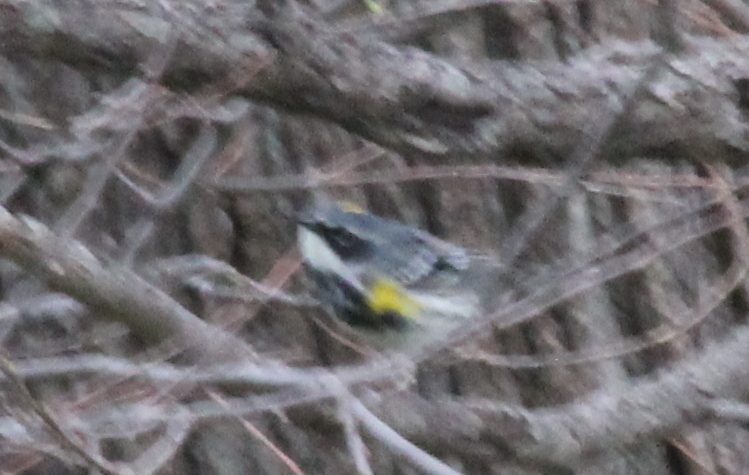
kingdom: Animalia
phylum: Chordata
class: Aves
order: Passeriformes
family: Parulidae
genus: Setophaga
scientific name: Setophaga coronata
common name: Myrtle warbler
